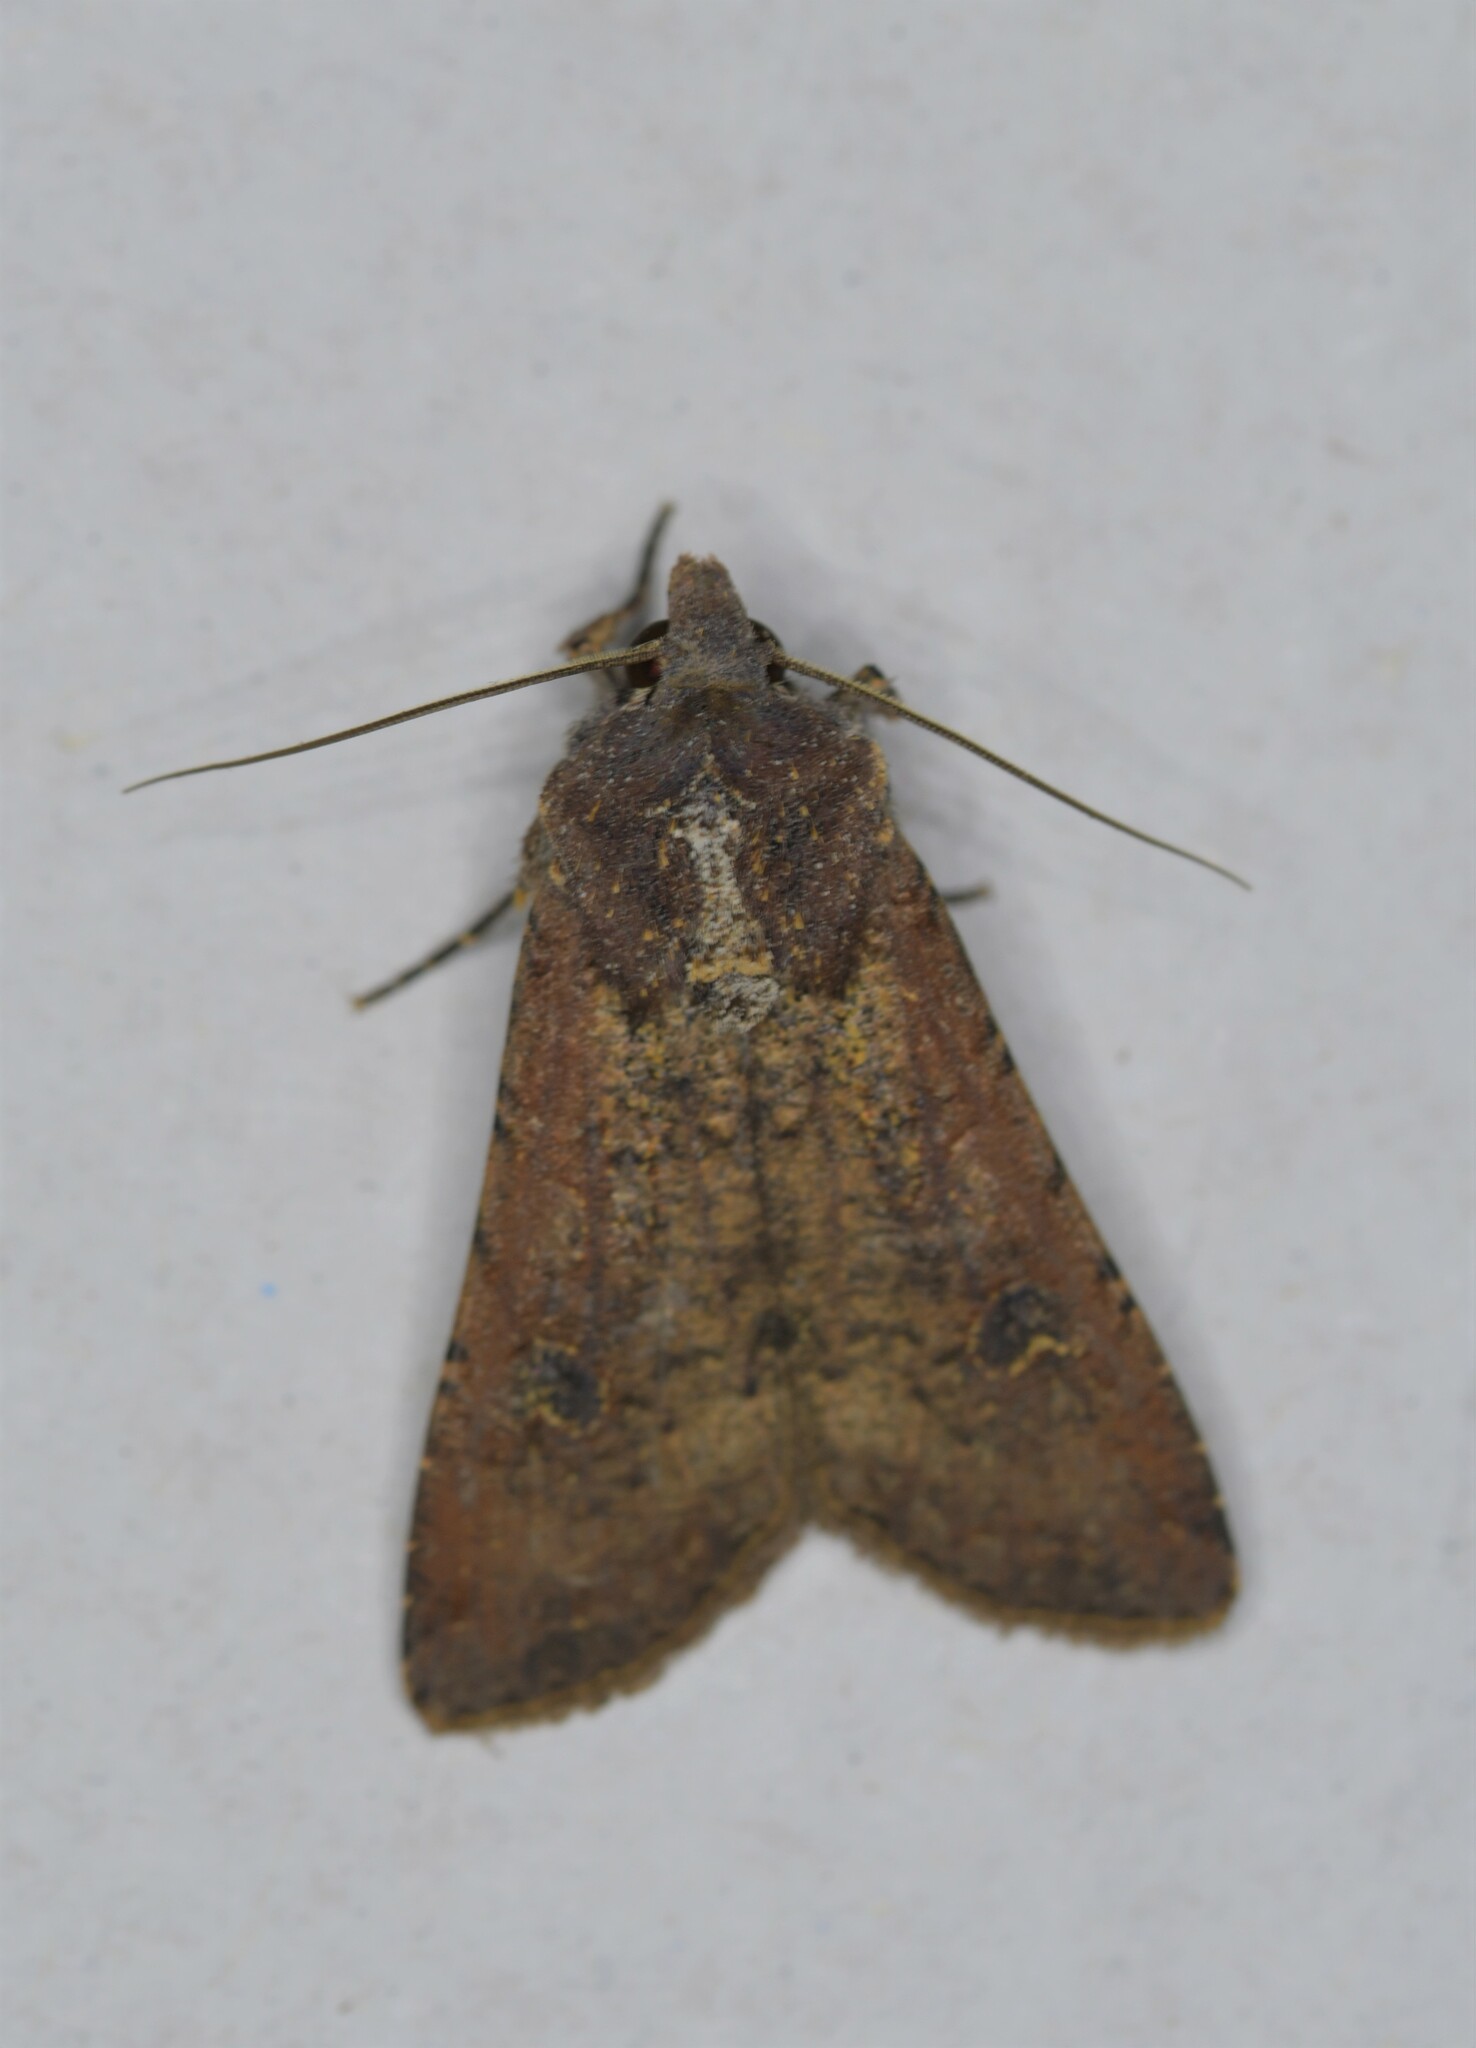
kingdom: Animalia
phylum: Arthropoda
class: Insecta
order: Lepidoptera
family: Noctuidae
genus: Peridroma
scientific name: Peridroma saucia
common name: Pearly underwing
